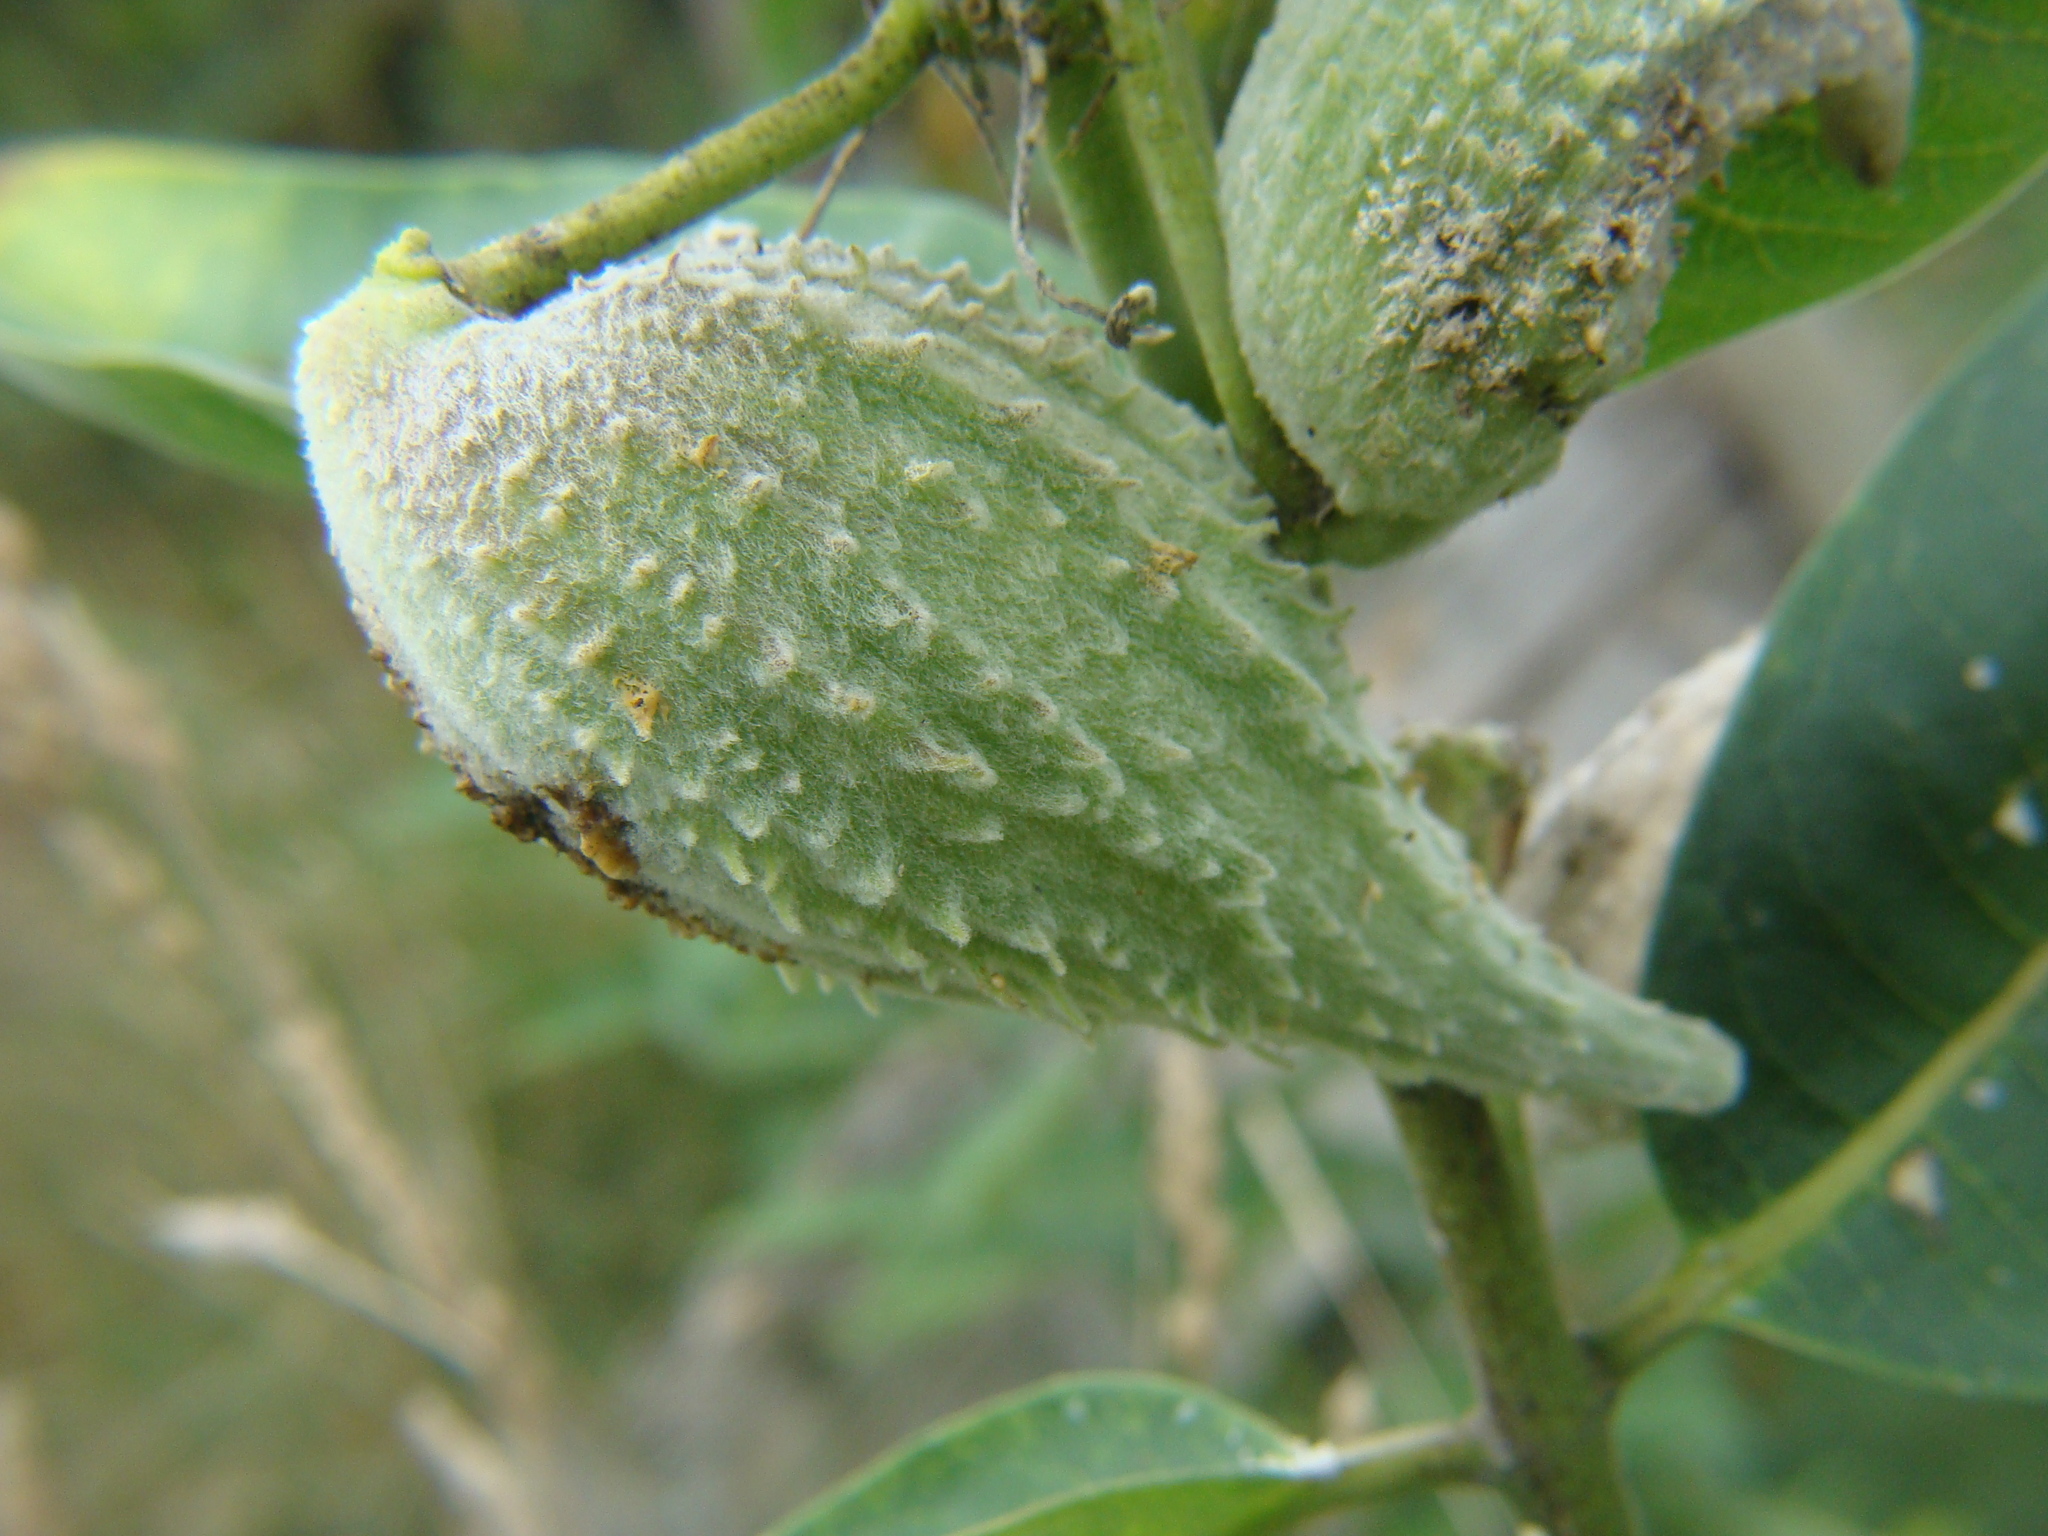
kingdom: Plantae
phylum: Tracheophyta
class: Magnoliopsida
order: Gentianales
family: Apocynaceae
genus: Asclepias
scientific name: Asclepias syriaca
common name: Common milkweed
